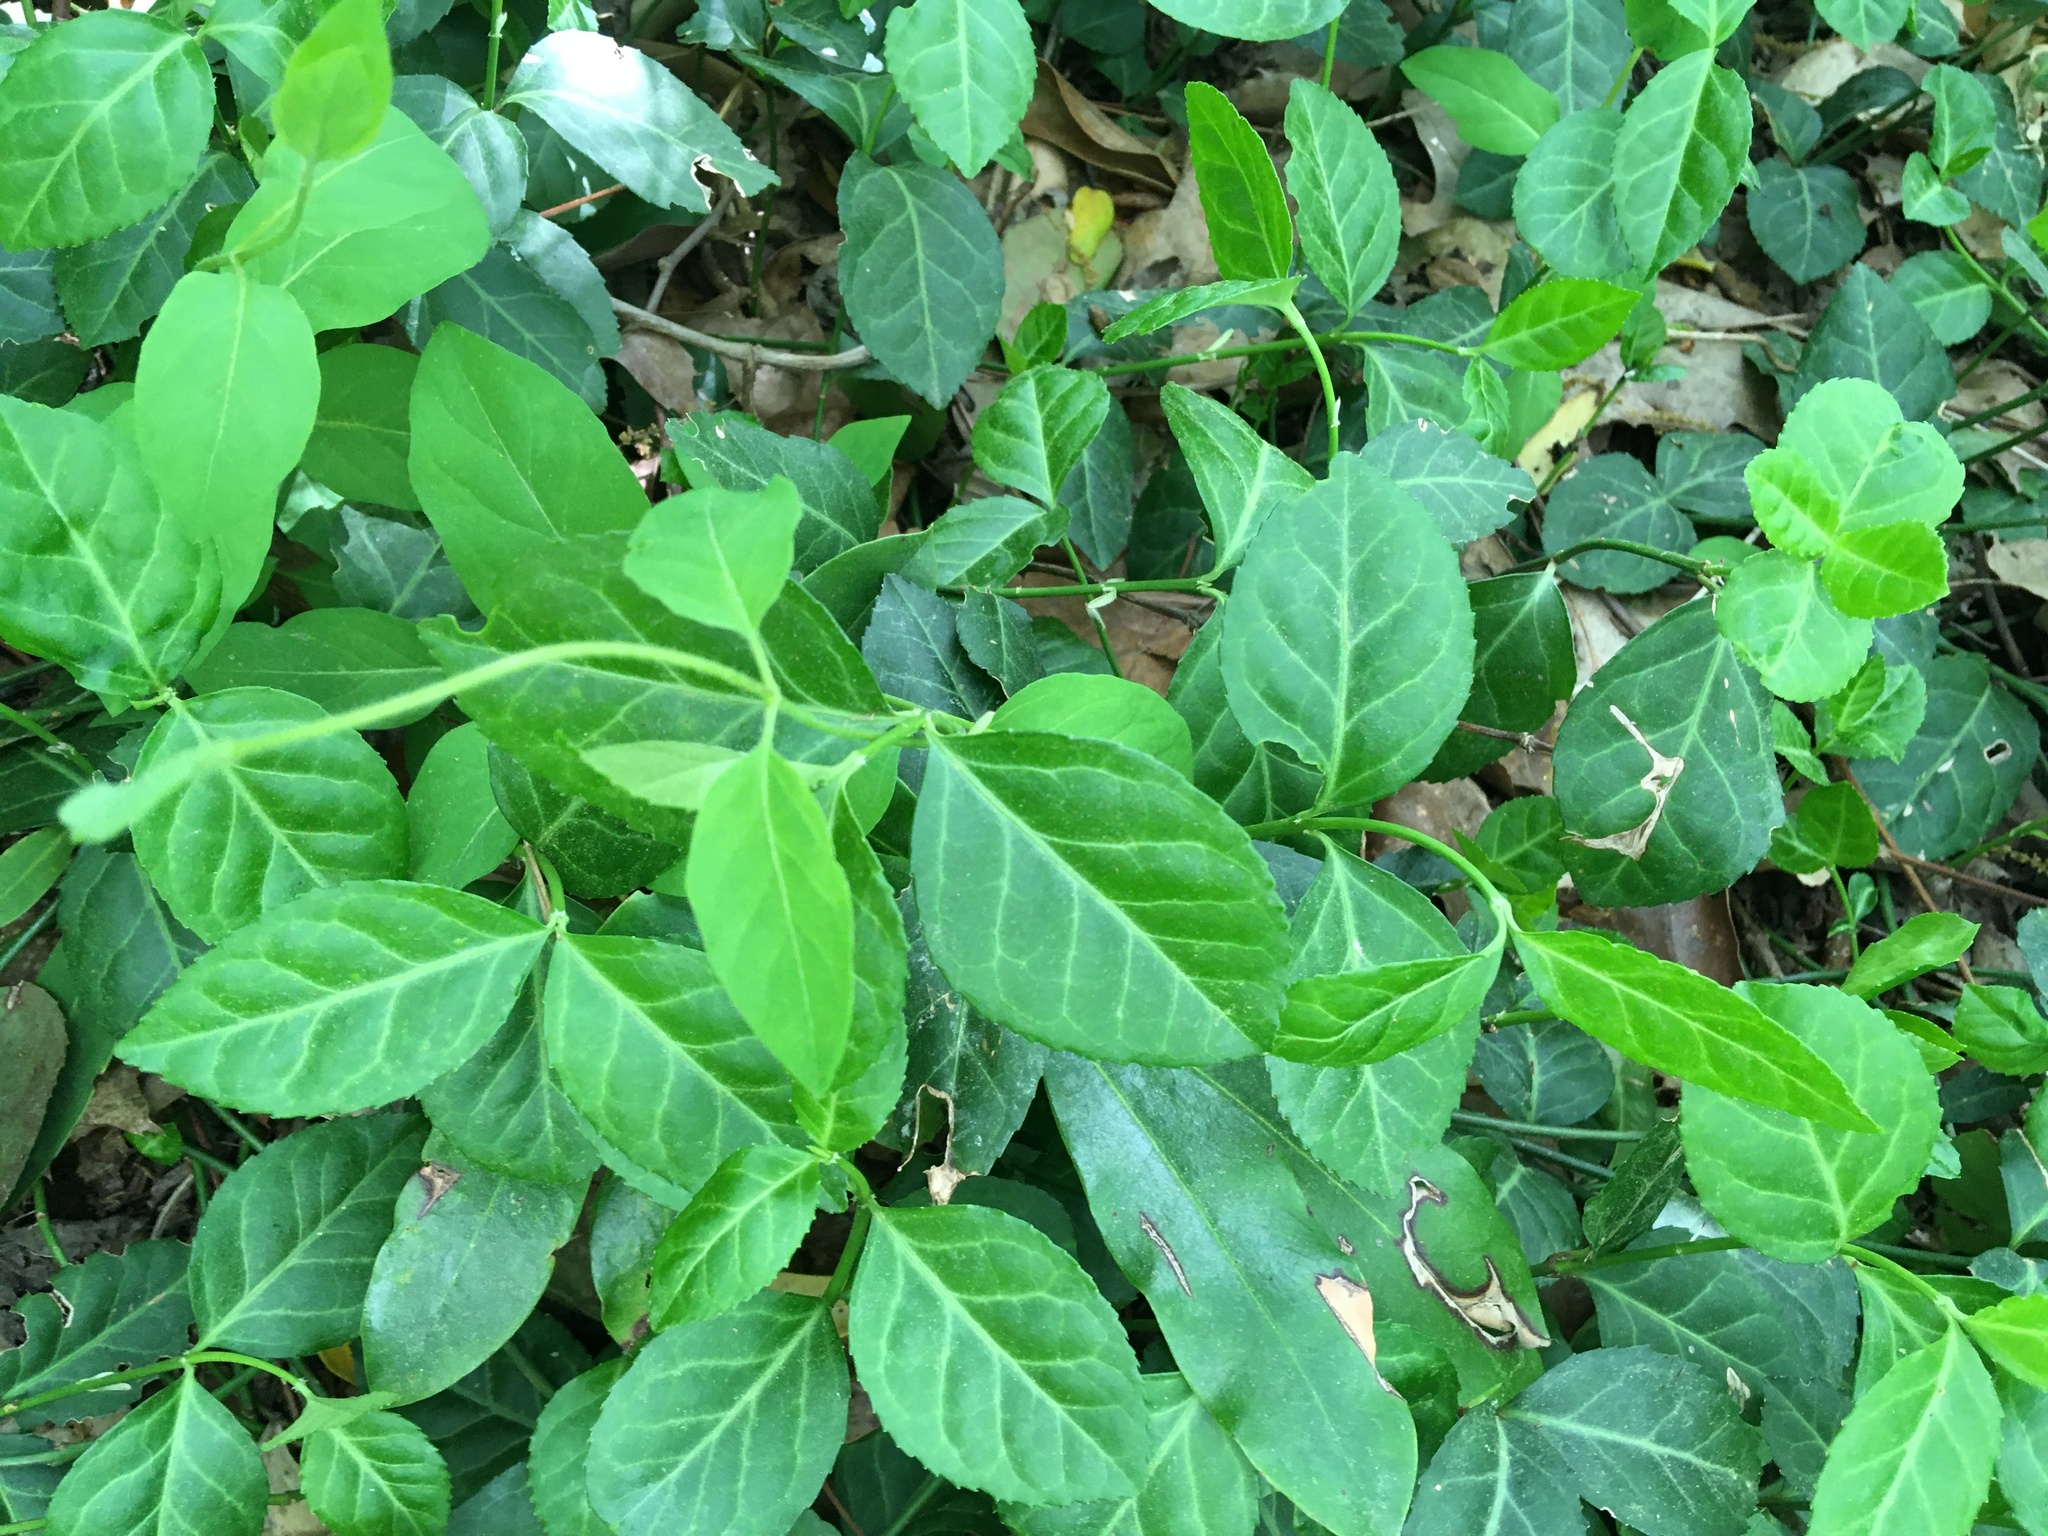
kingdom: Plantae
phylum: Tracheophyta
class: Magnoliopsida
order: Celastrales
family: Celastraceae
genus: Euonymus
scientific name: Euonymus fortunei
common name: Climbing euonymus
